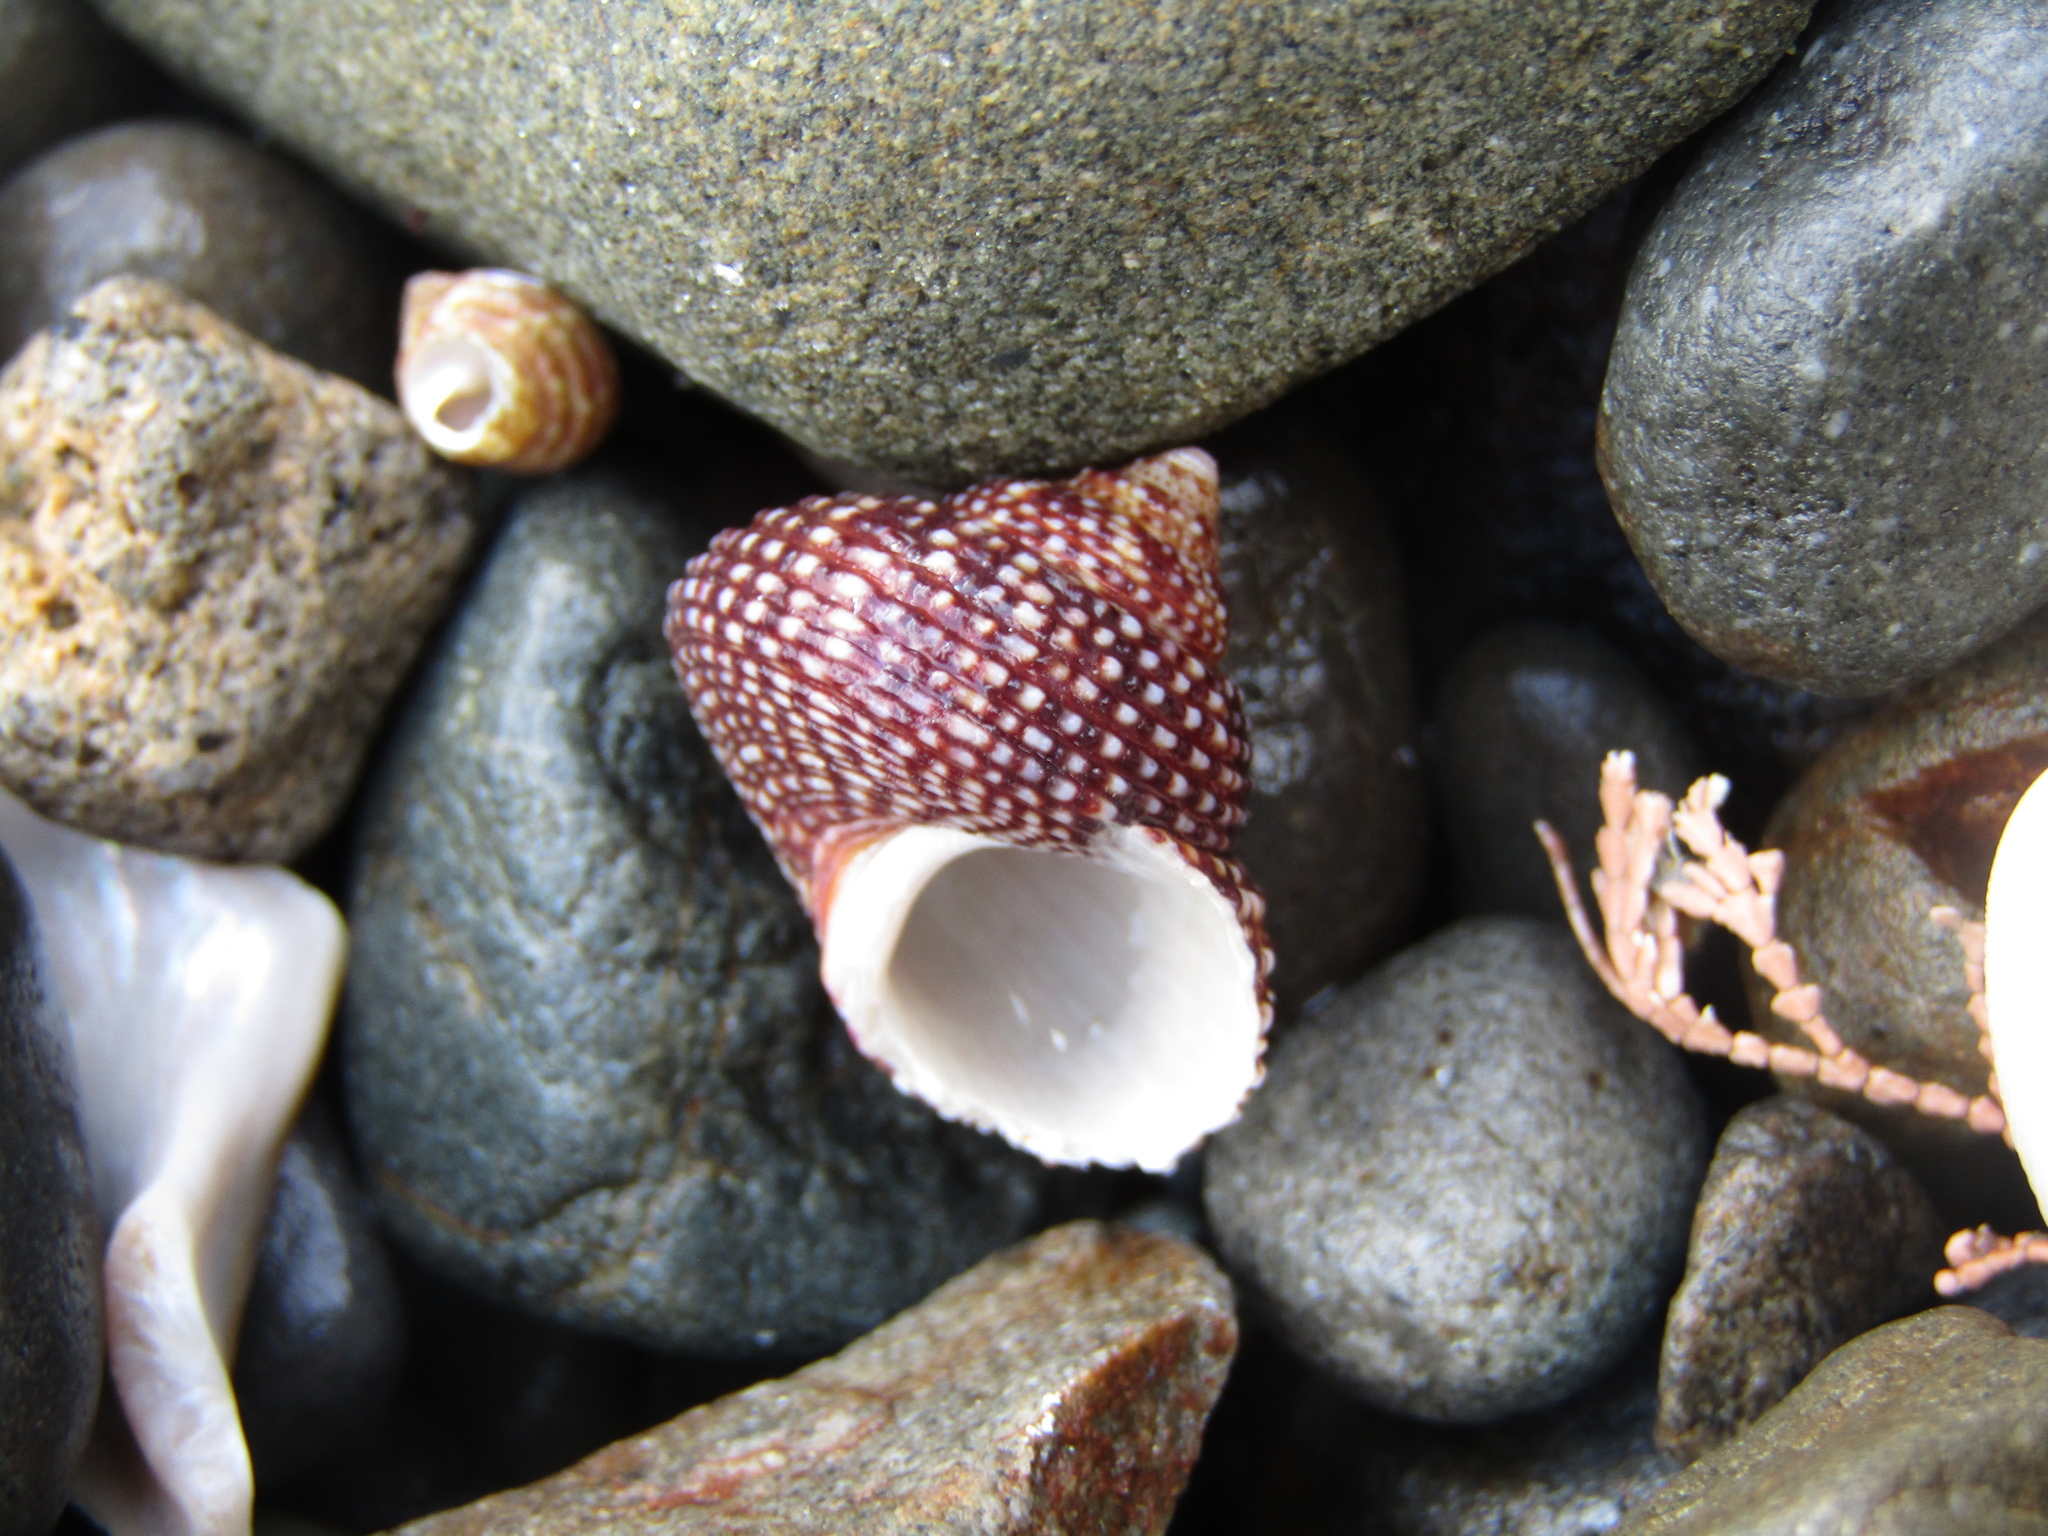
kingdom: Animalia
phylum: Mollusca
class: Gastropoda
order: Trochida
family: Calliostomatidae
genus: Maurea
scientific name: Maurea punctulata
